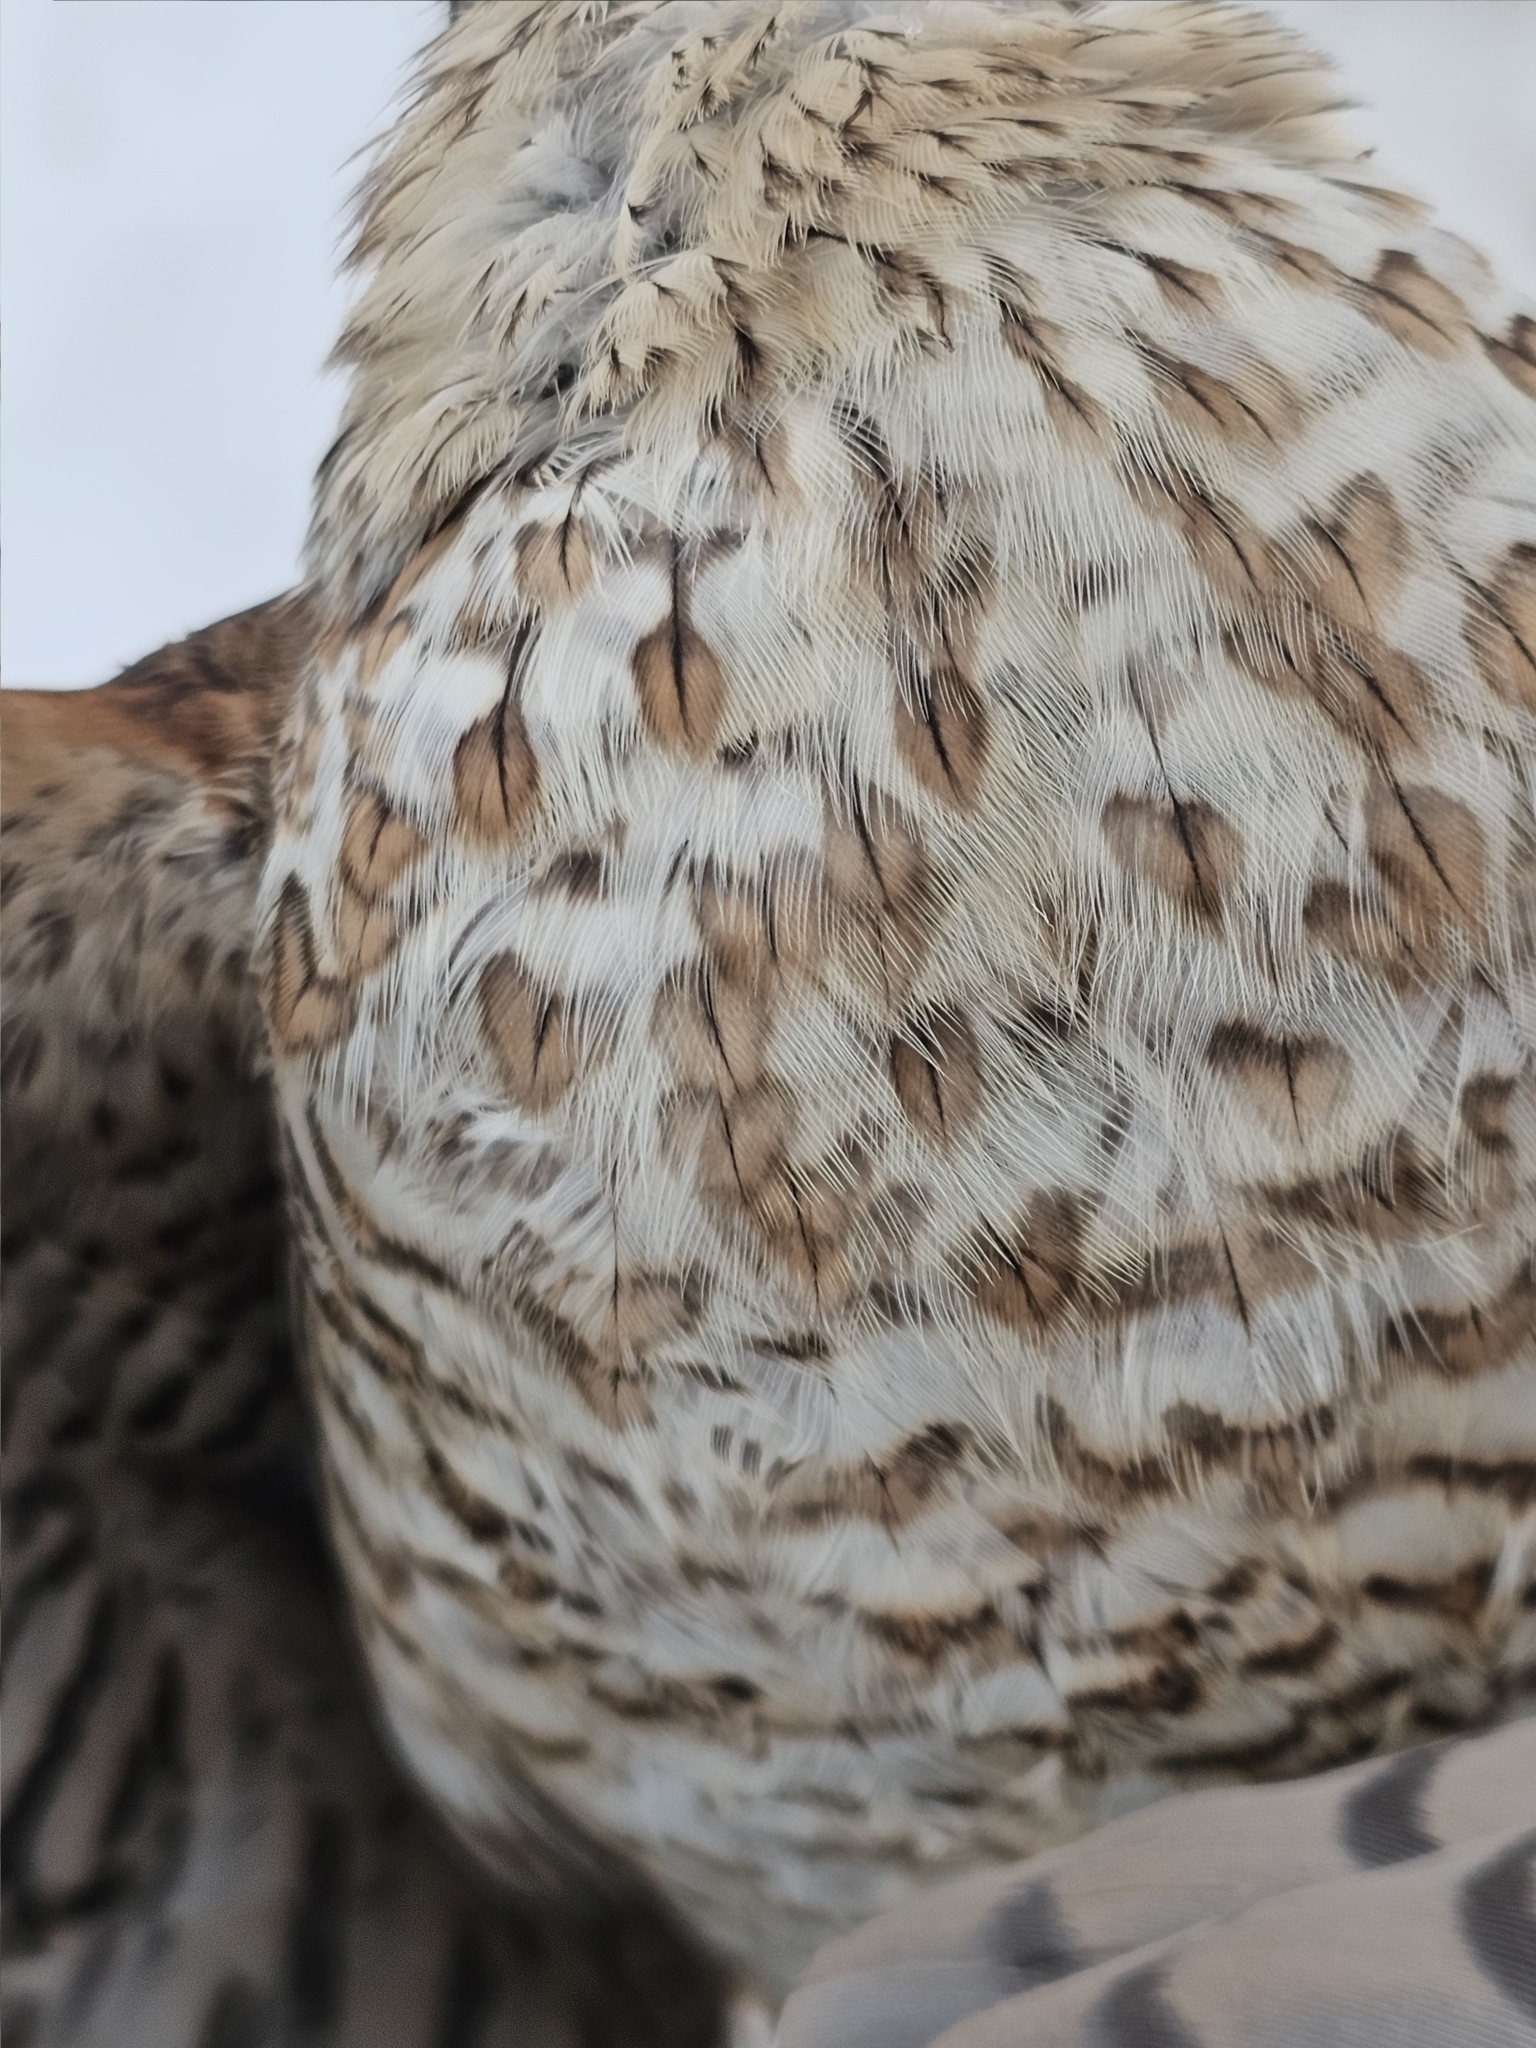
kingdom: Animalia
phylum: Chordata
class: Aves
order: Accipitriformes
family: Accipitridae
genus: Accipiter
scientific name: Accipiter nisus
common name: Eurasian sparrowhawk
